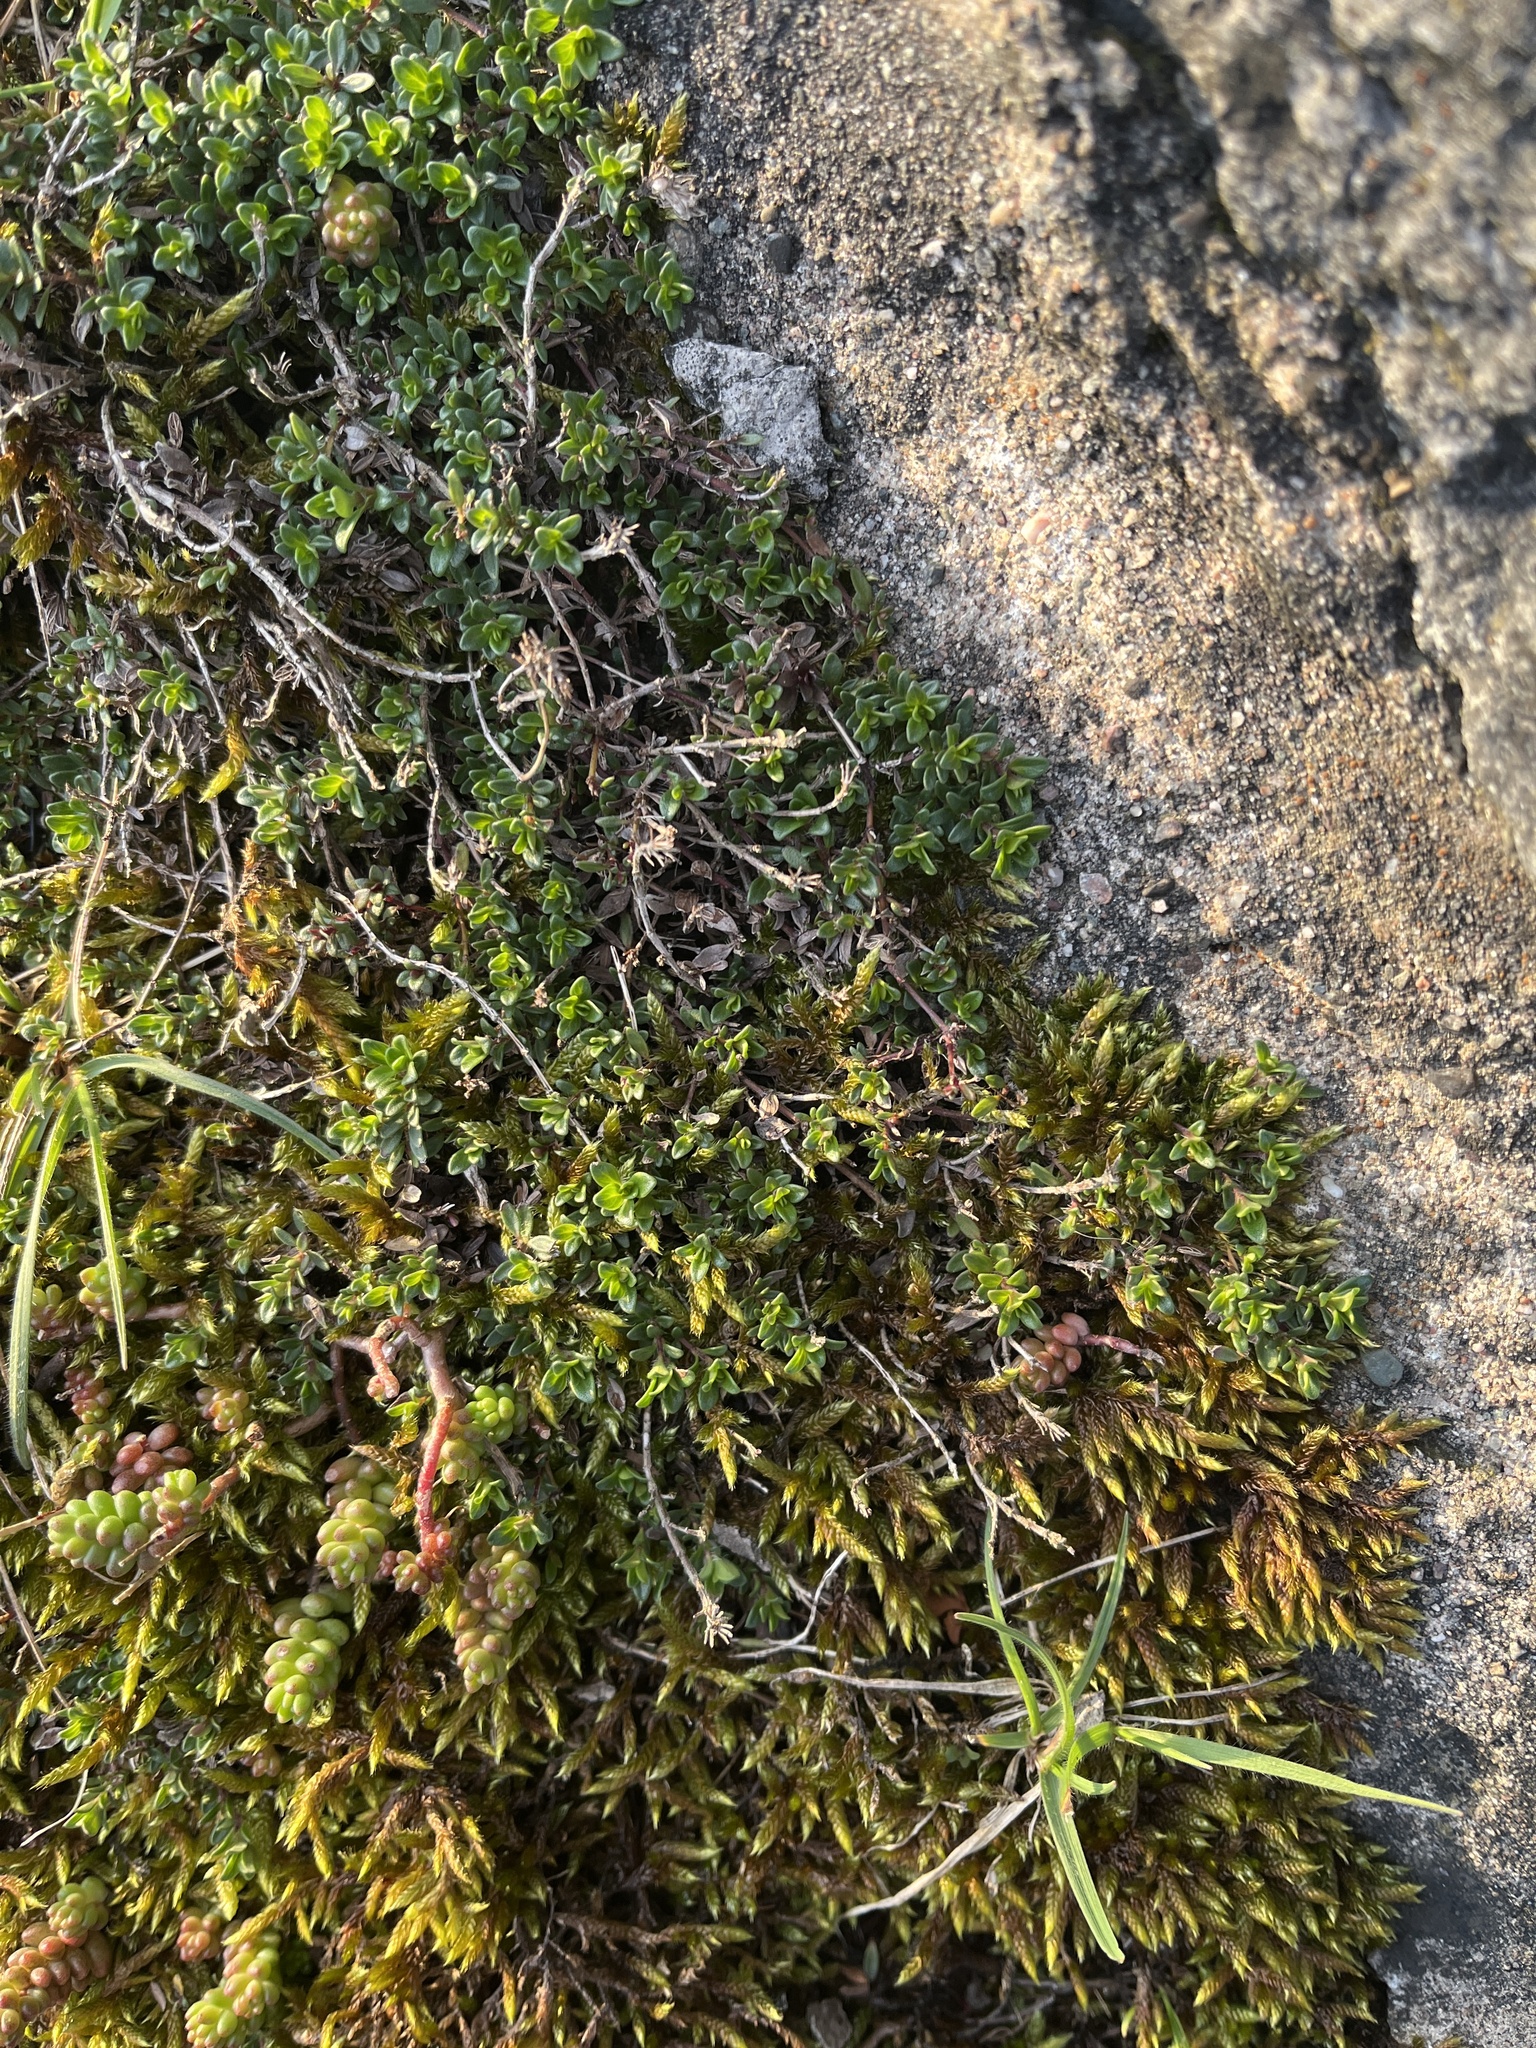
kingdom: Plantae
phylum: Tracheophyta
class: Magnoliopsida
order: Lamiales
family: Lamiaceae
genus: Thymus
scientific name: Thymus praecox
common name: Wild thyme
